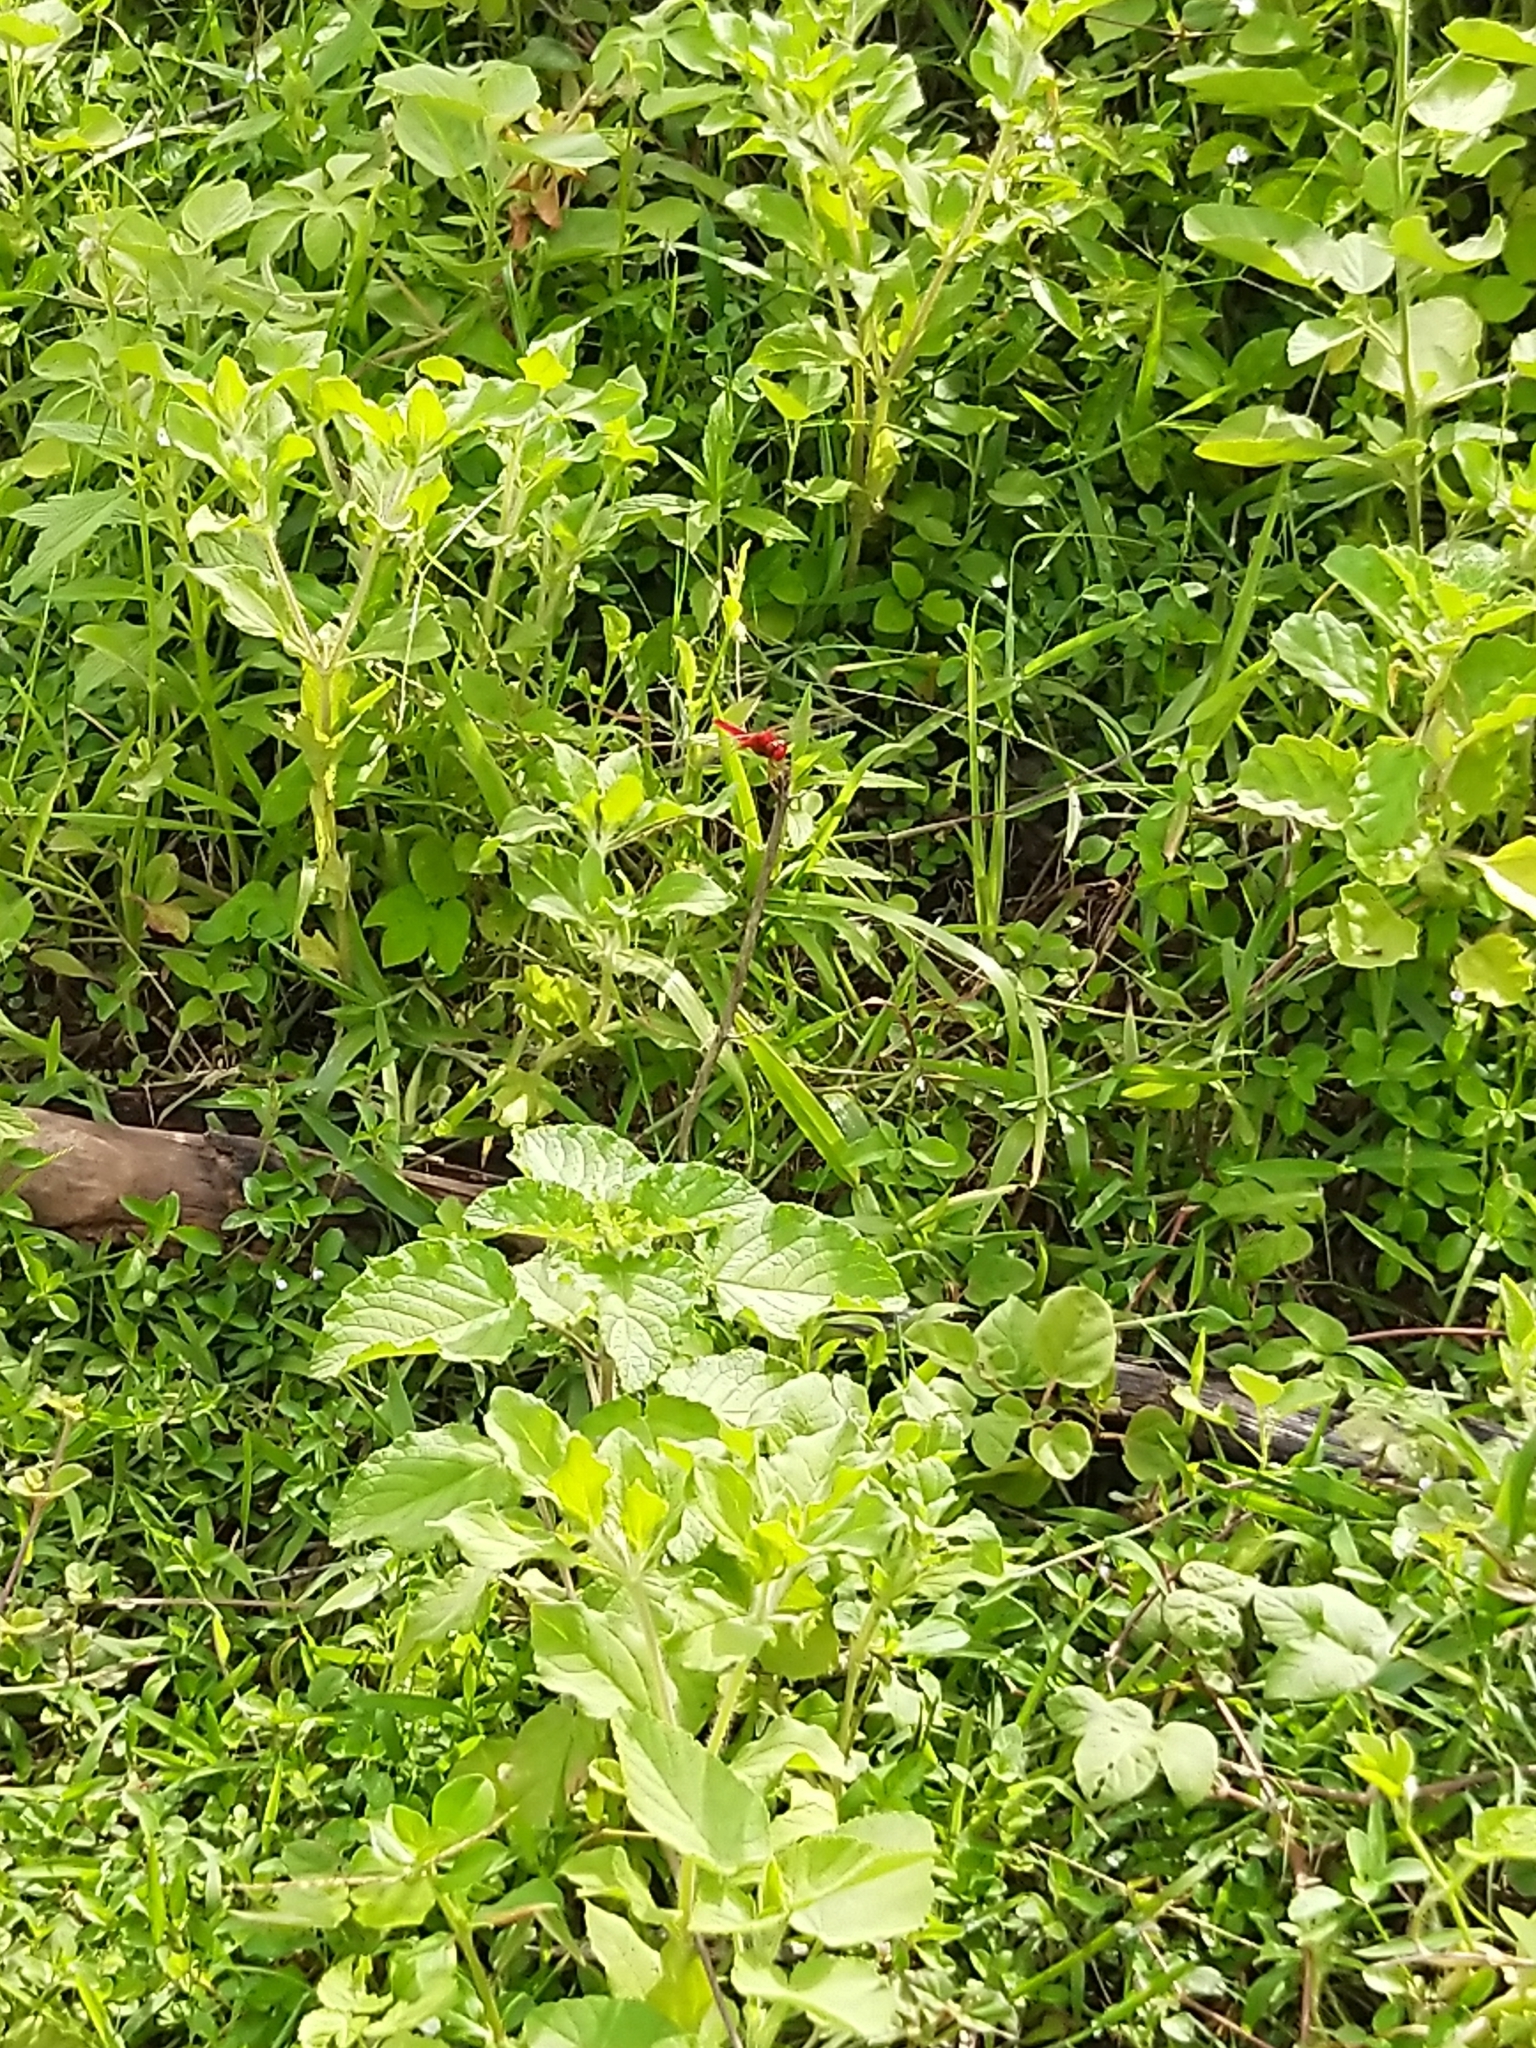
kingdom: Animalia
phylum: Arthropoda
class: Insecta
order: Odonata
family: Libellulidae
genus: Crocothemis
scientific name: Crocothemis servilia
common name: Scarlet skimmer
